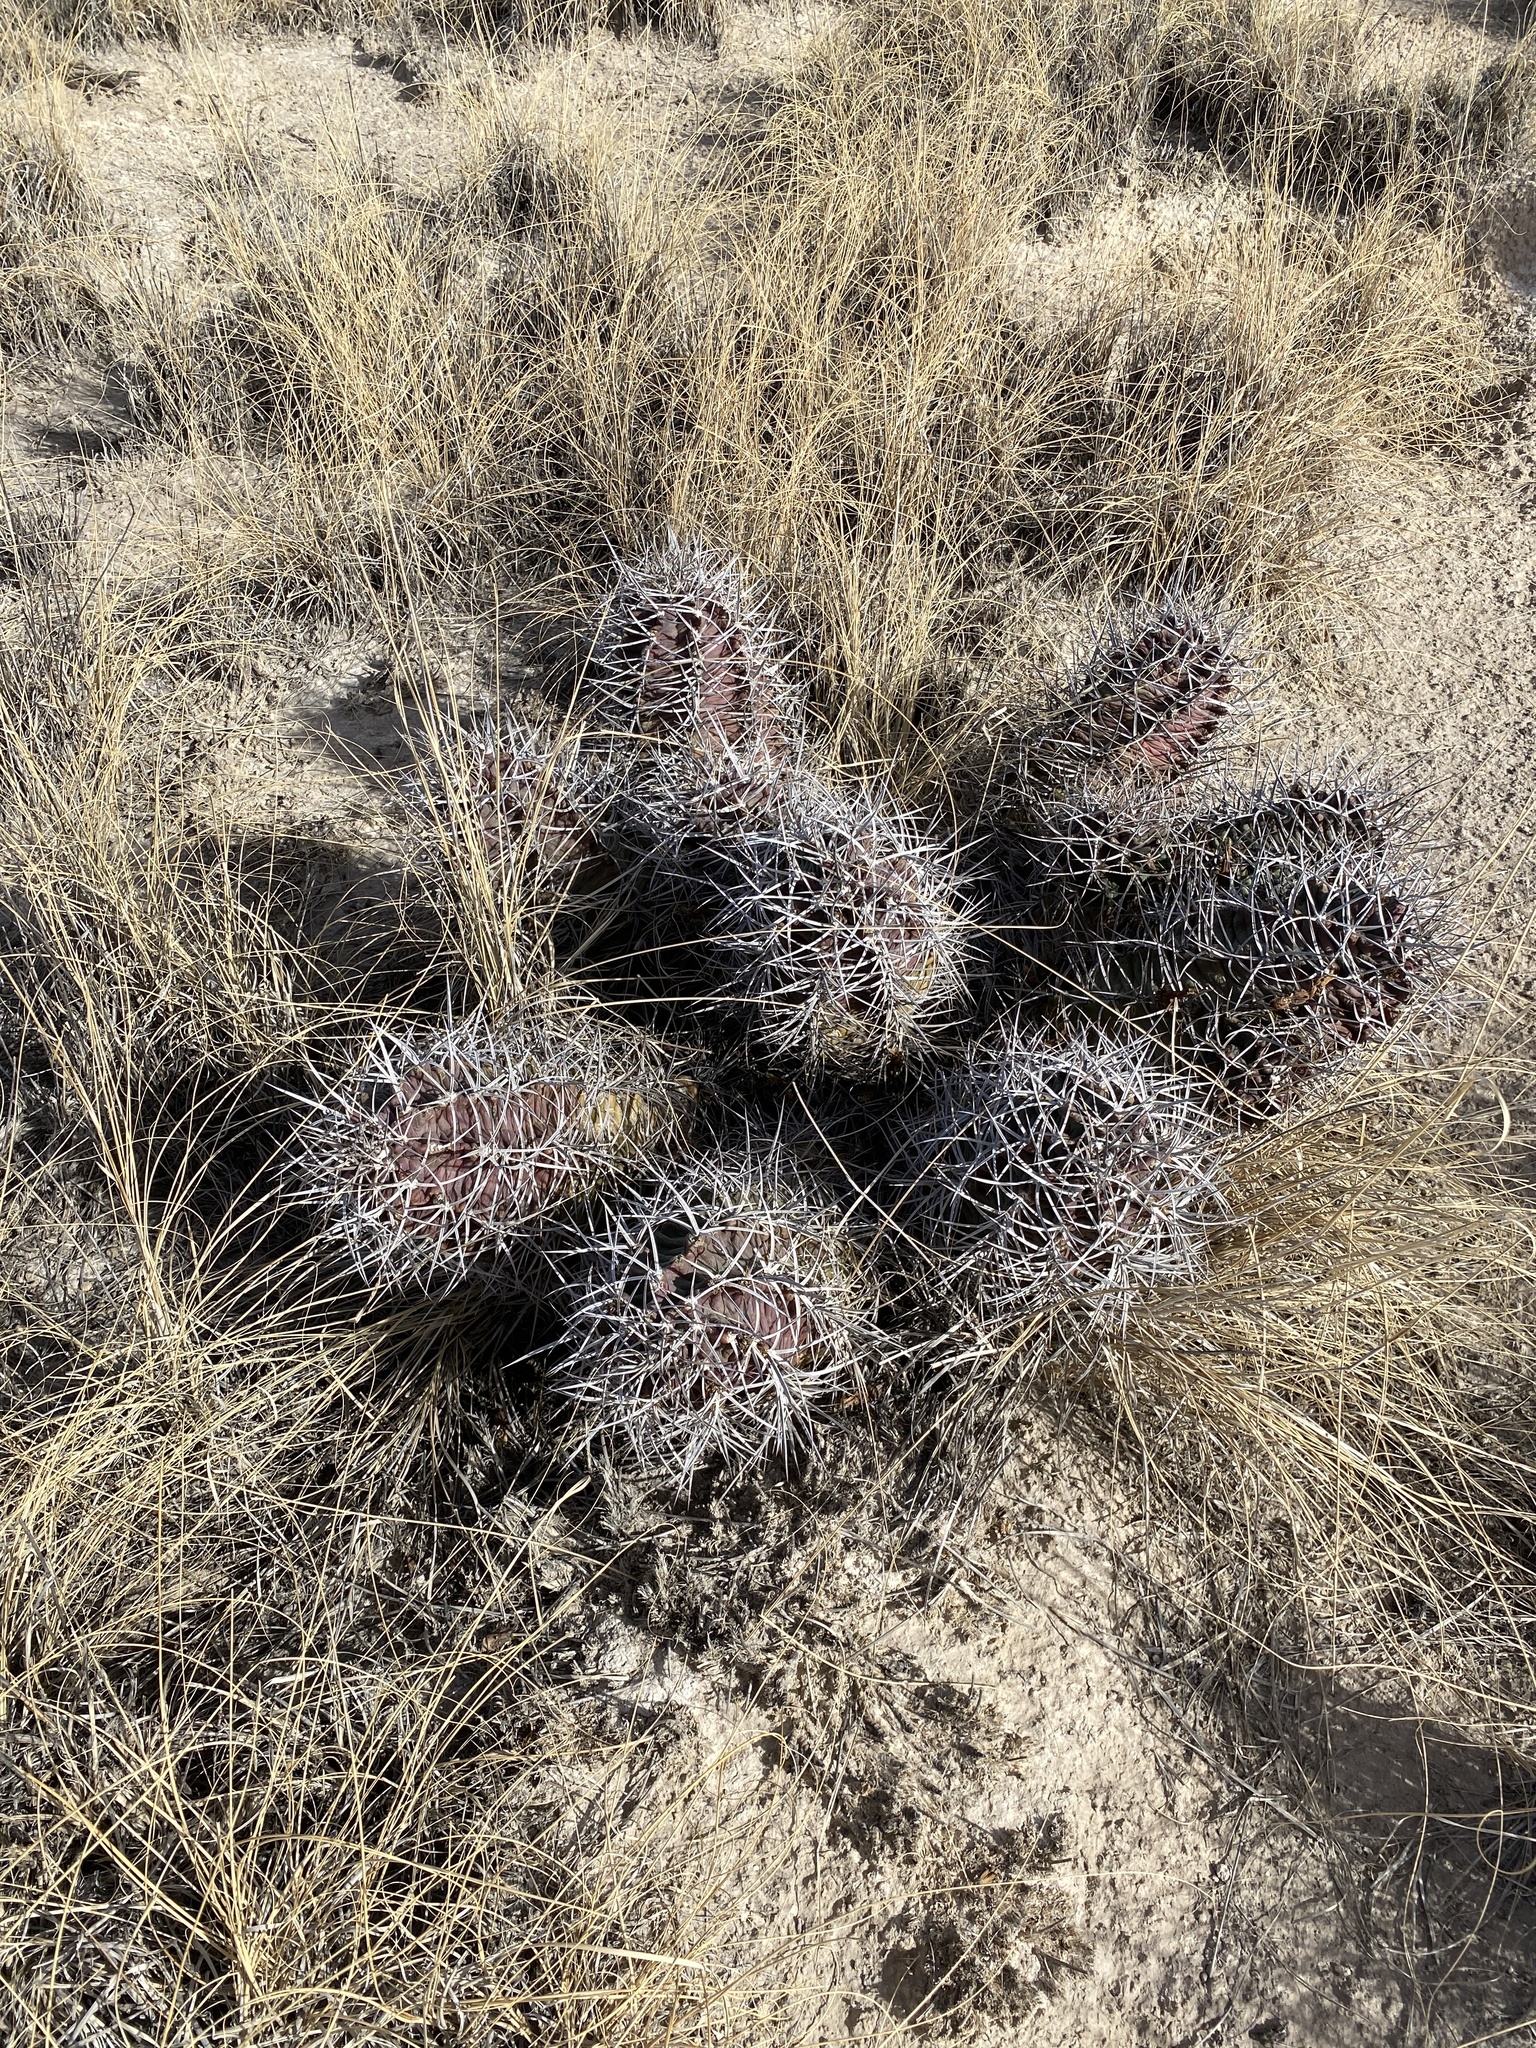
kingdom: Plantae
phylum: Tracheophyta
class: Magnoliopsida
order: Caryophyllales
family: Cactaceae
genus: Echinocereus
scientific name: Echinocereus triglochidiatus
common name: Claretcup hedgehog
